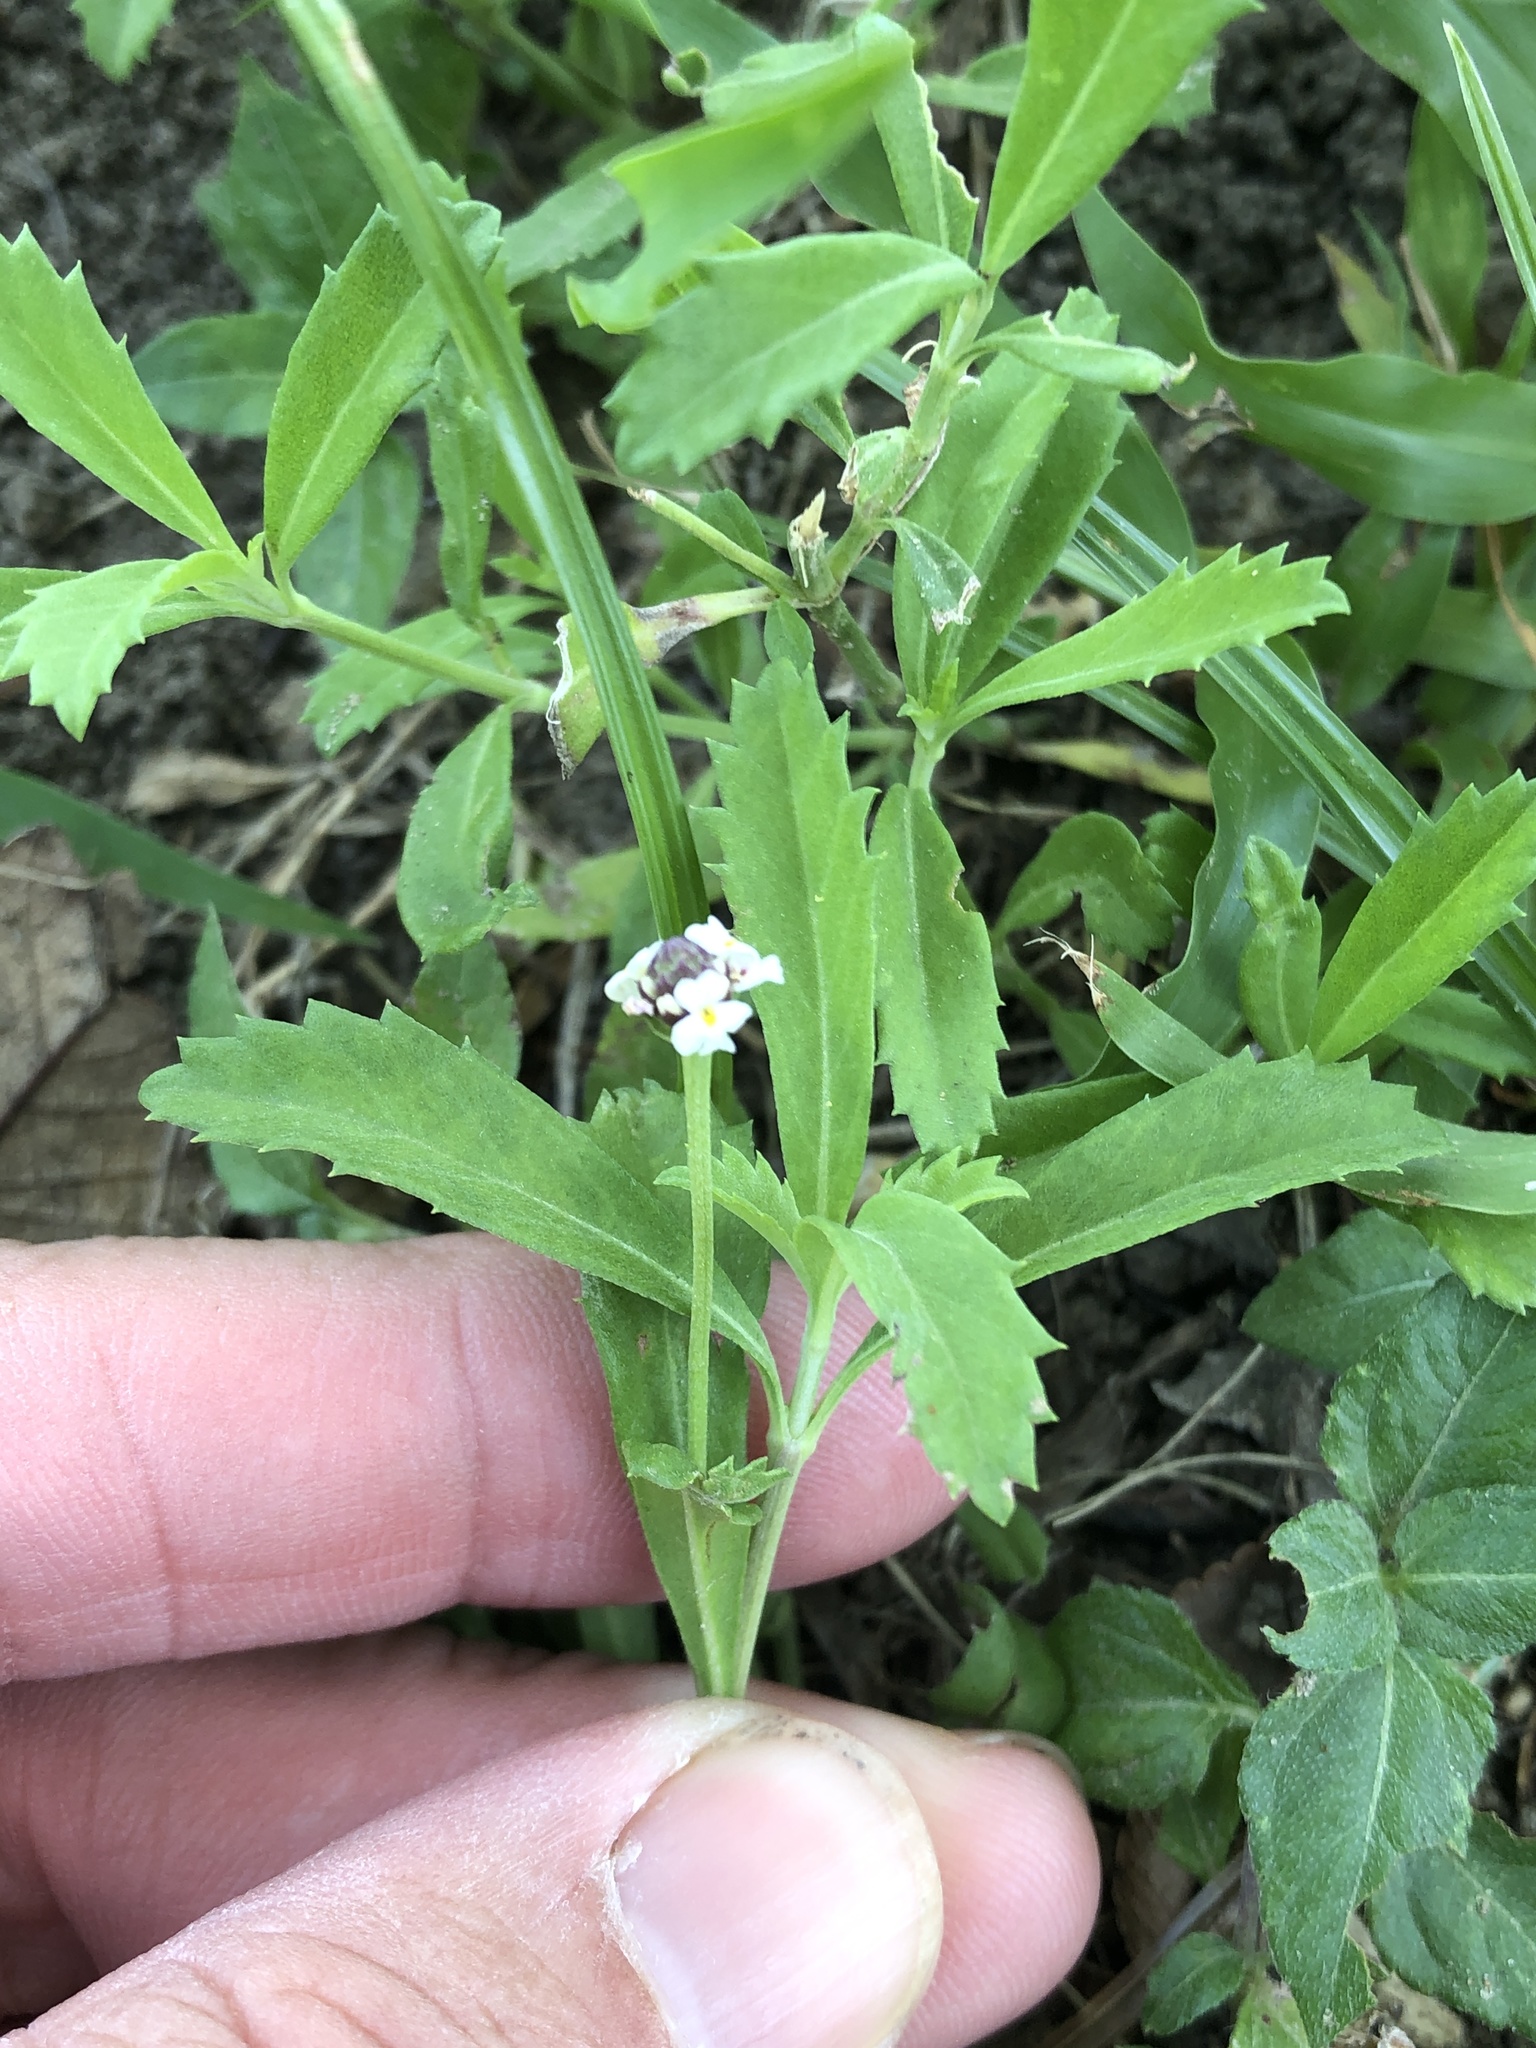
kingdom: Plantae
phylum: Tracheophyta
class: Magnoliopsida
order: Lamiales
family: Verbenaceae
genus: Phyla
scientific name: Phyla nodiflora
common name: Frogfruit
